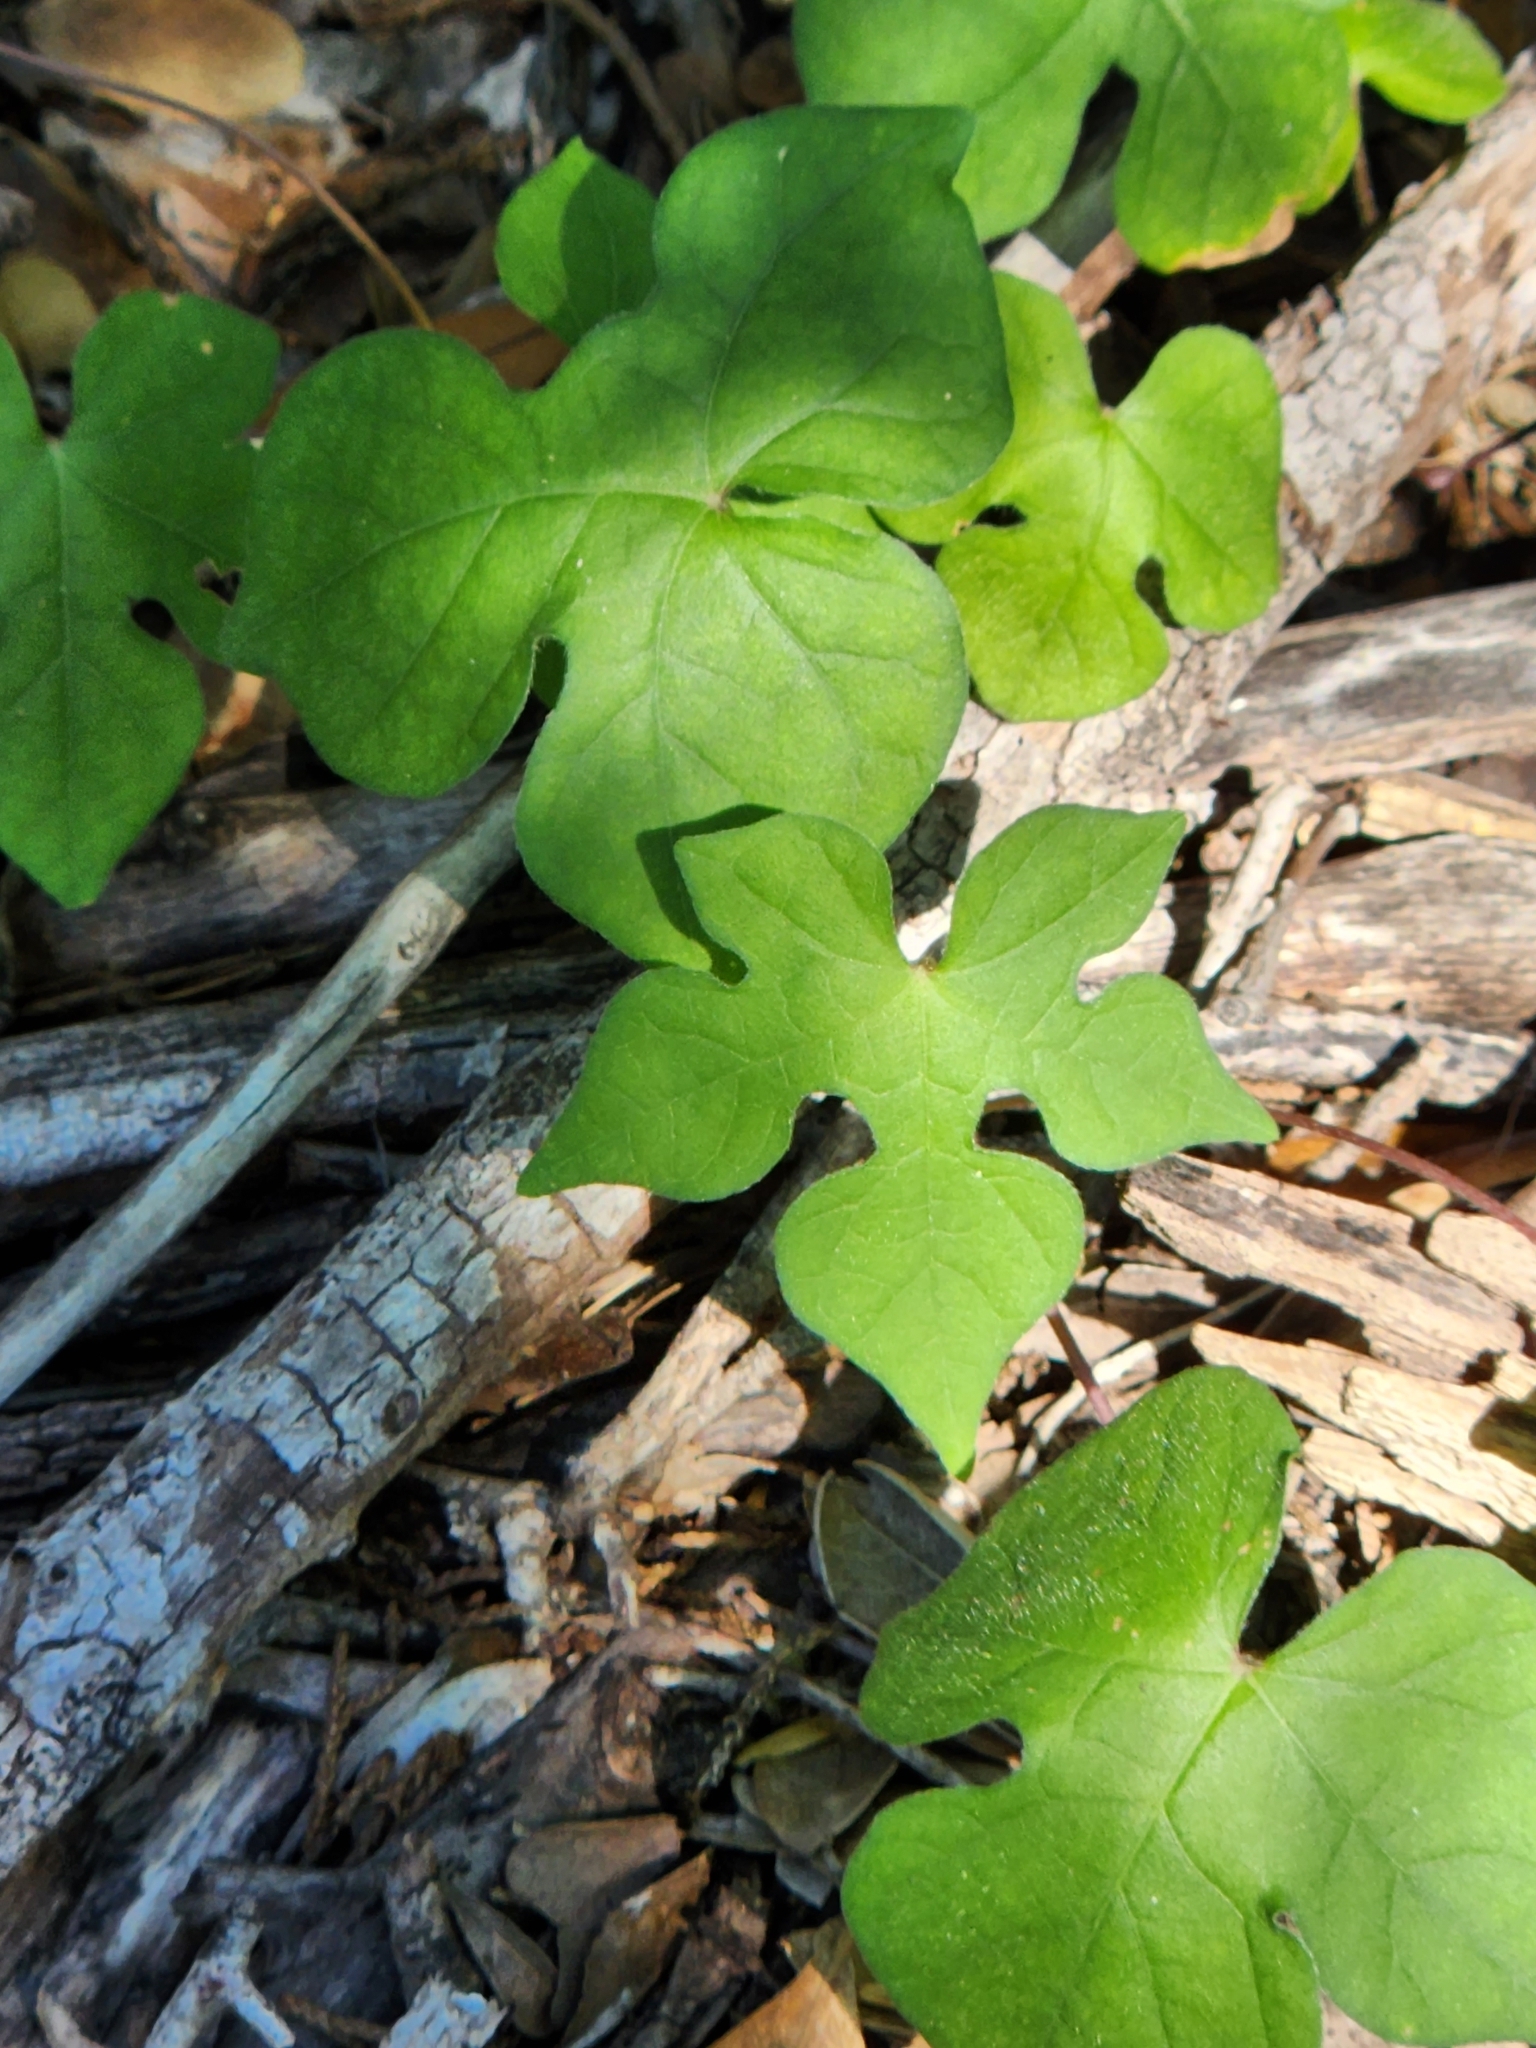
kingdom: Plantae
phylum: Tracheophyta
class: Magnoliopsida
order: Solanales
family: Convolvulaceae
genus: Ipomoea
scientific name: Ipomoea lindheimeri
